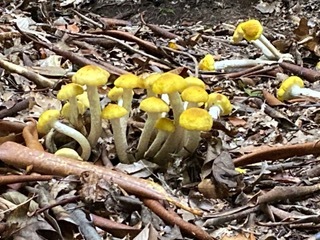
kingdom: Fungi
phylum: Basidiomycota
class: Agaricomycetes
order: Agaricales
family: Physalacriaceae
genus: Armillaria
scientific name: Armillaria mellea
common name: Honey fungus
